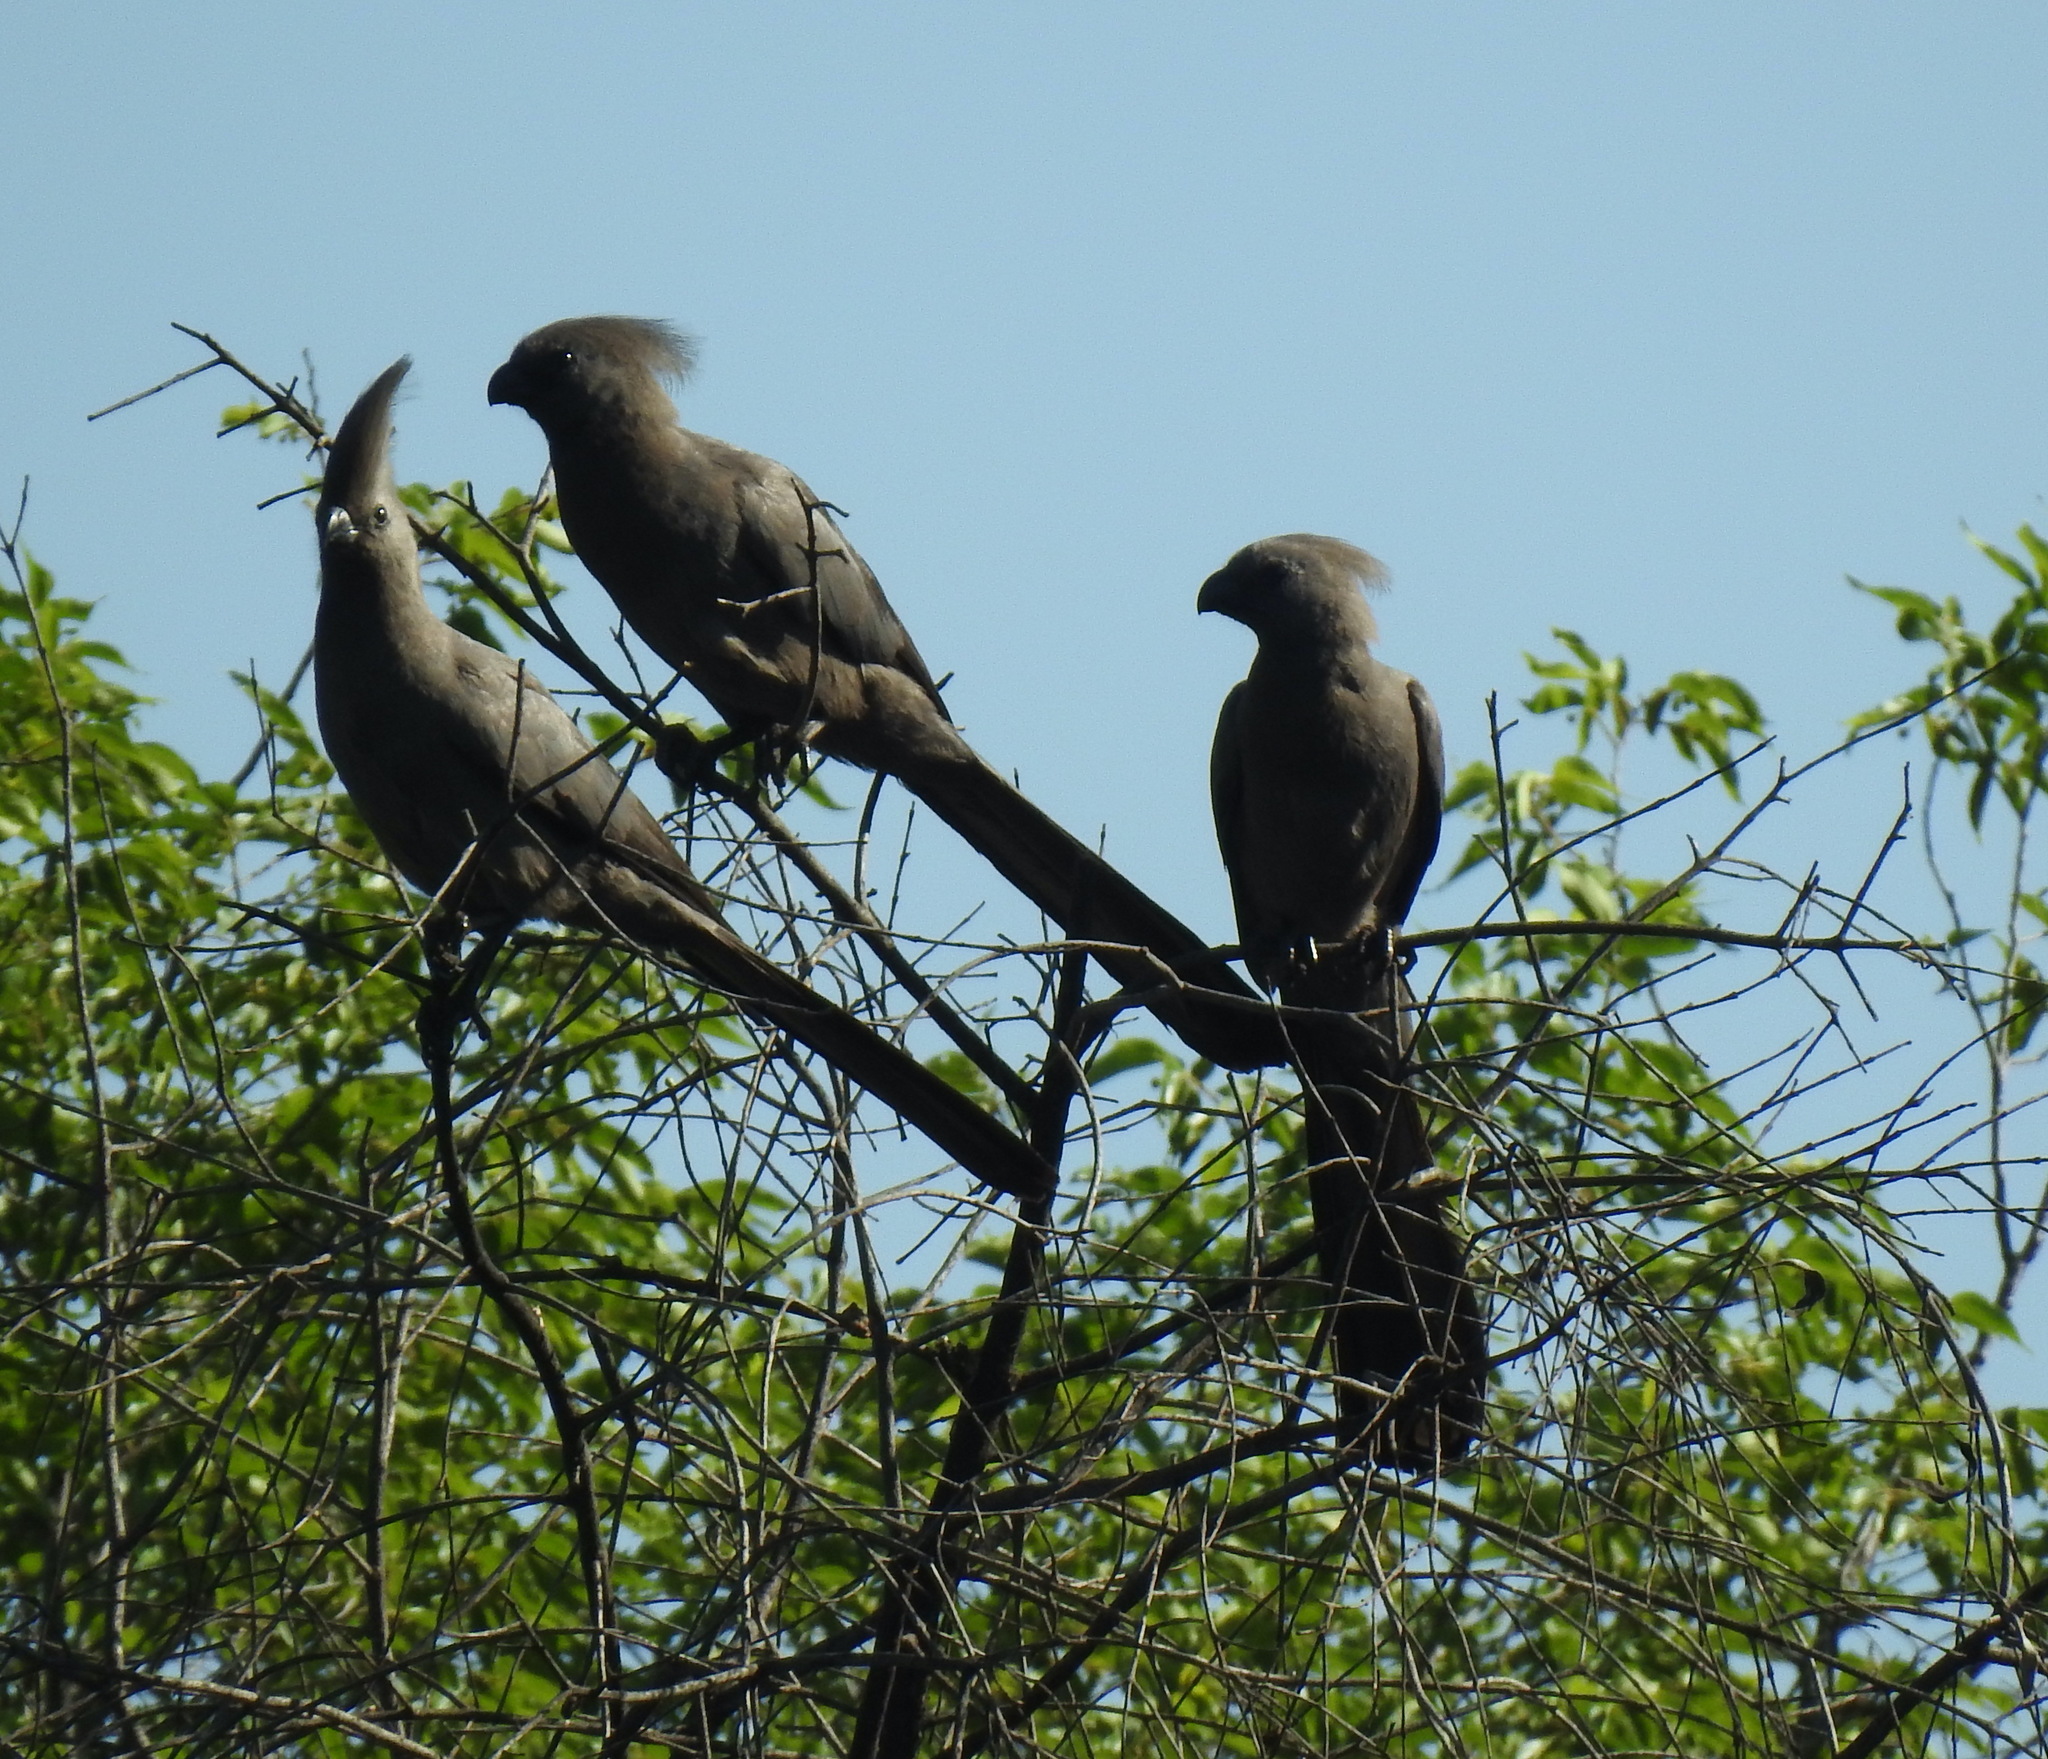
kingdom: Animalia
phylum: Chordata
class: Aves
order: Musophagiformes
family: Musophagidae
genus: Corythaixoides
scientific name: Corythaixoides concolor
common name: Grey go-away-bird
